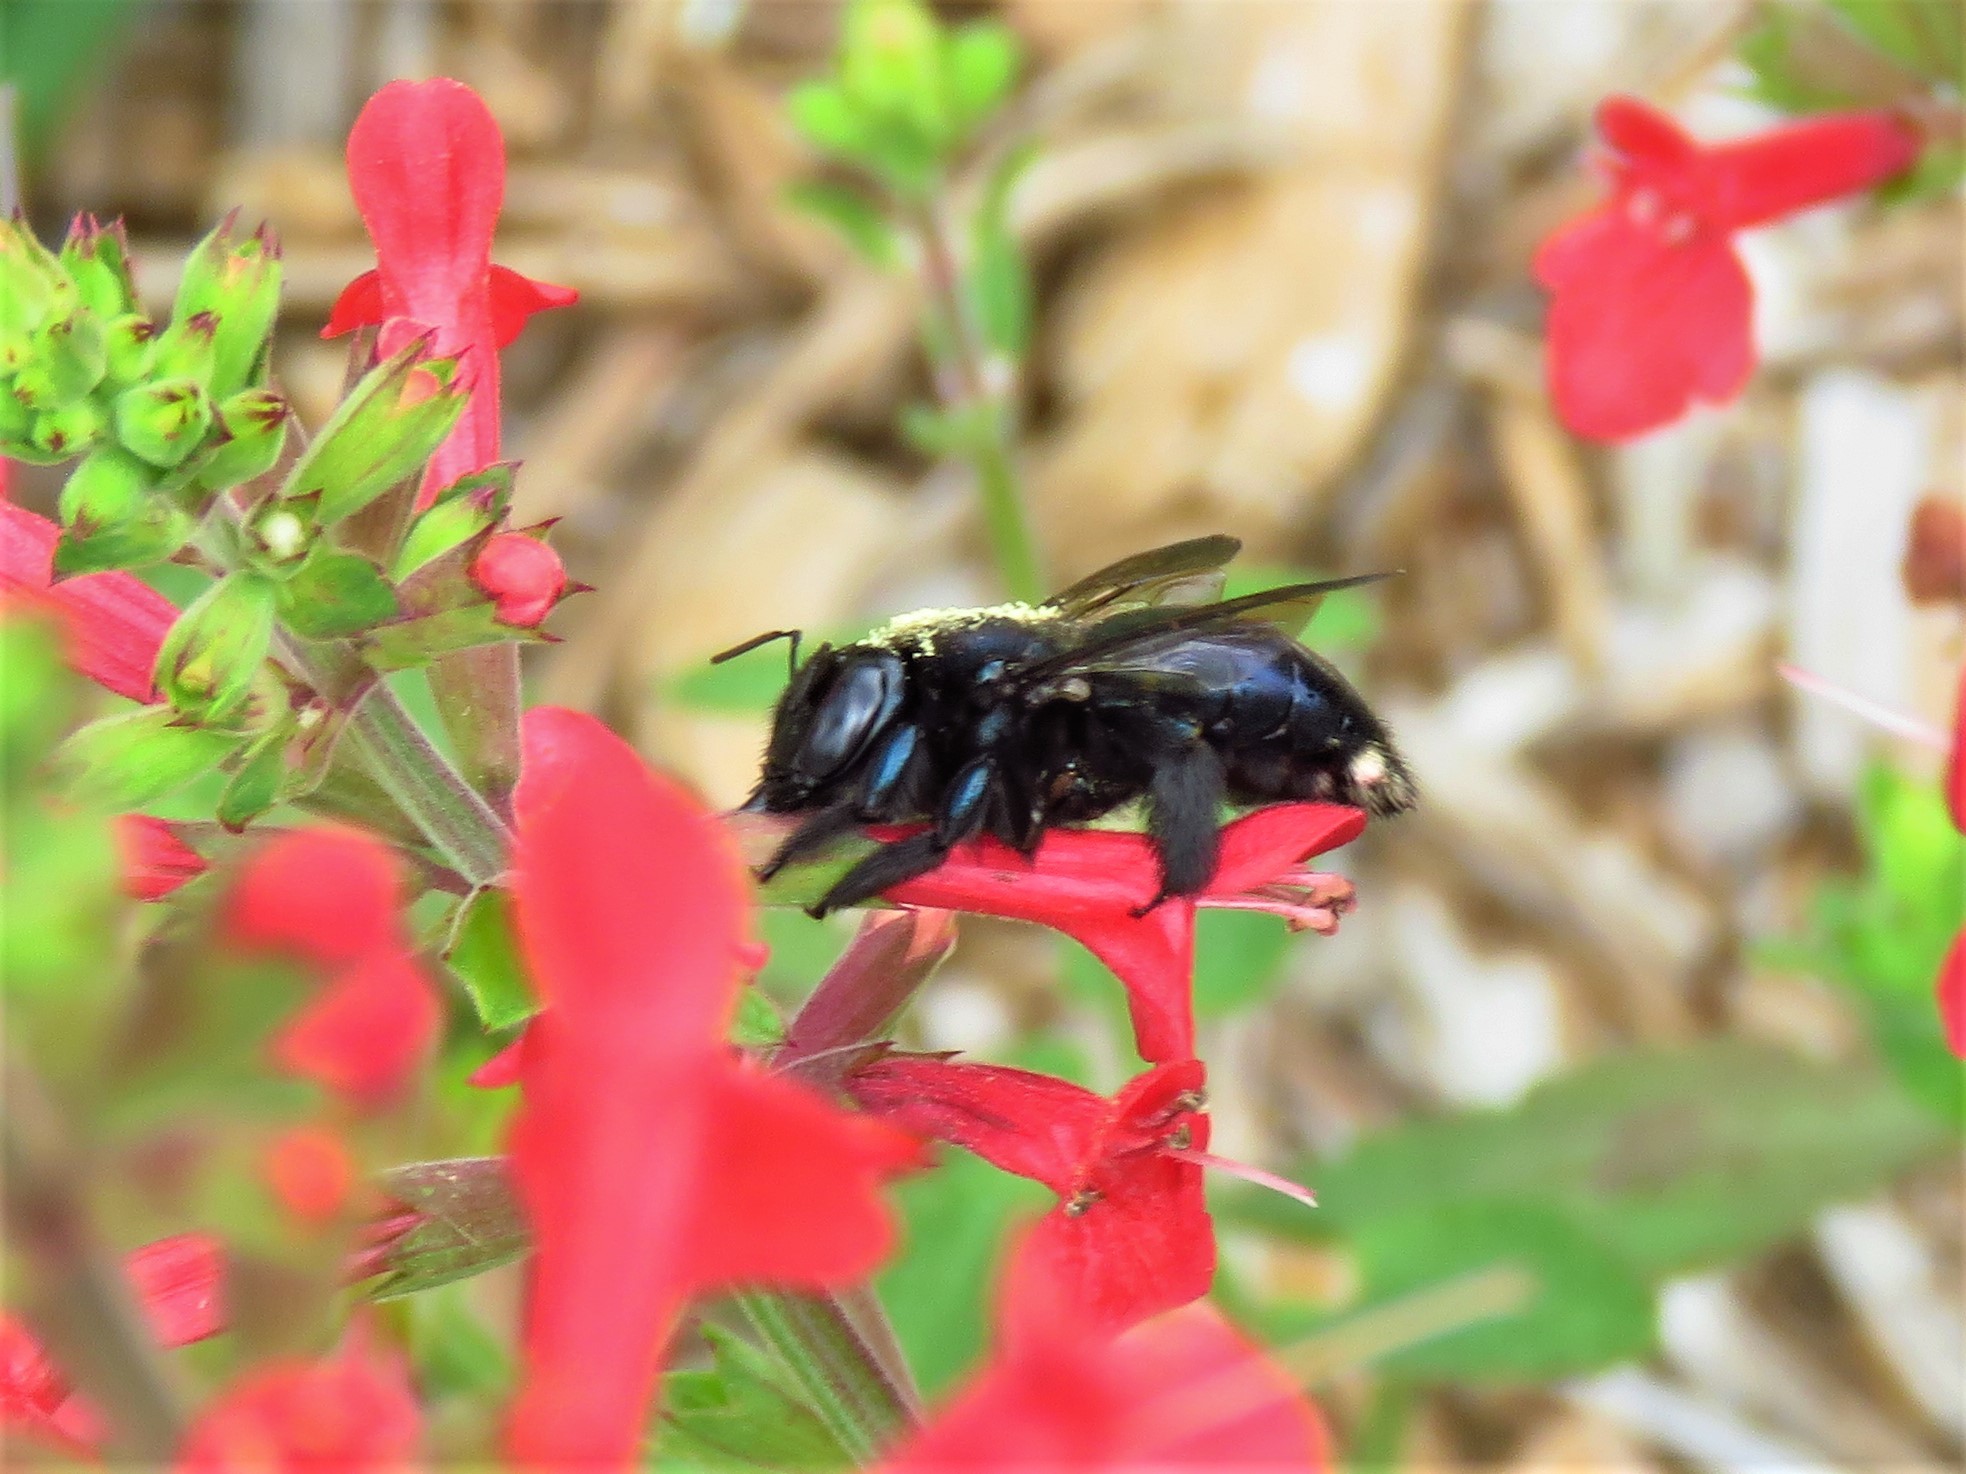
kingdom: Animalia
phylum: Arthropoda
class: Insecta
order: Hymenoptera
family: Apidae
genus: Xylocopa
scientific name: Xylocopa micans
